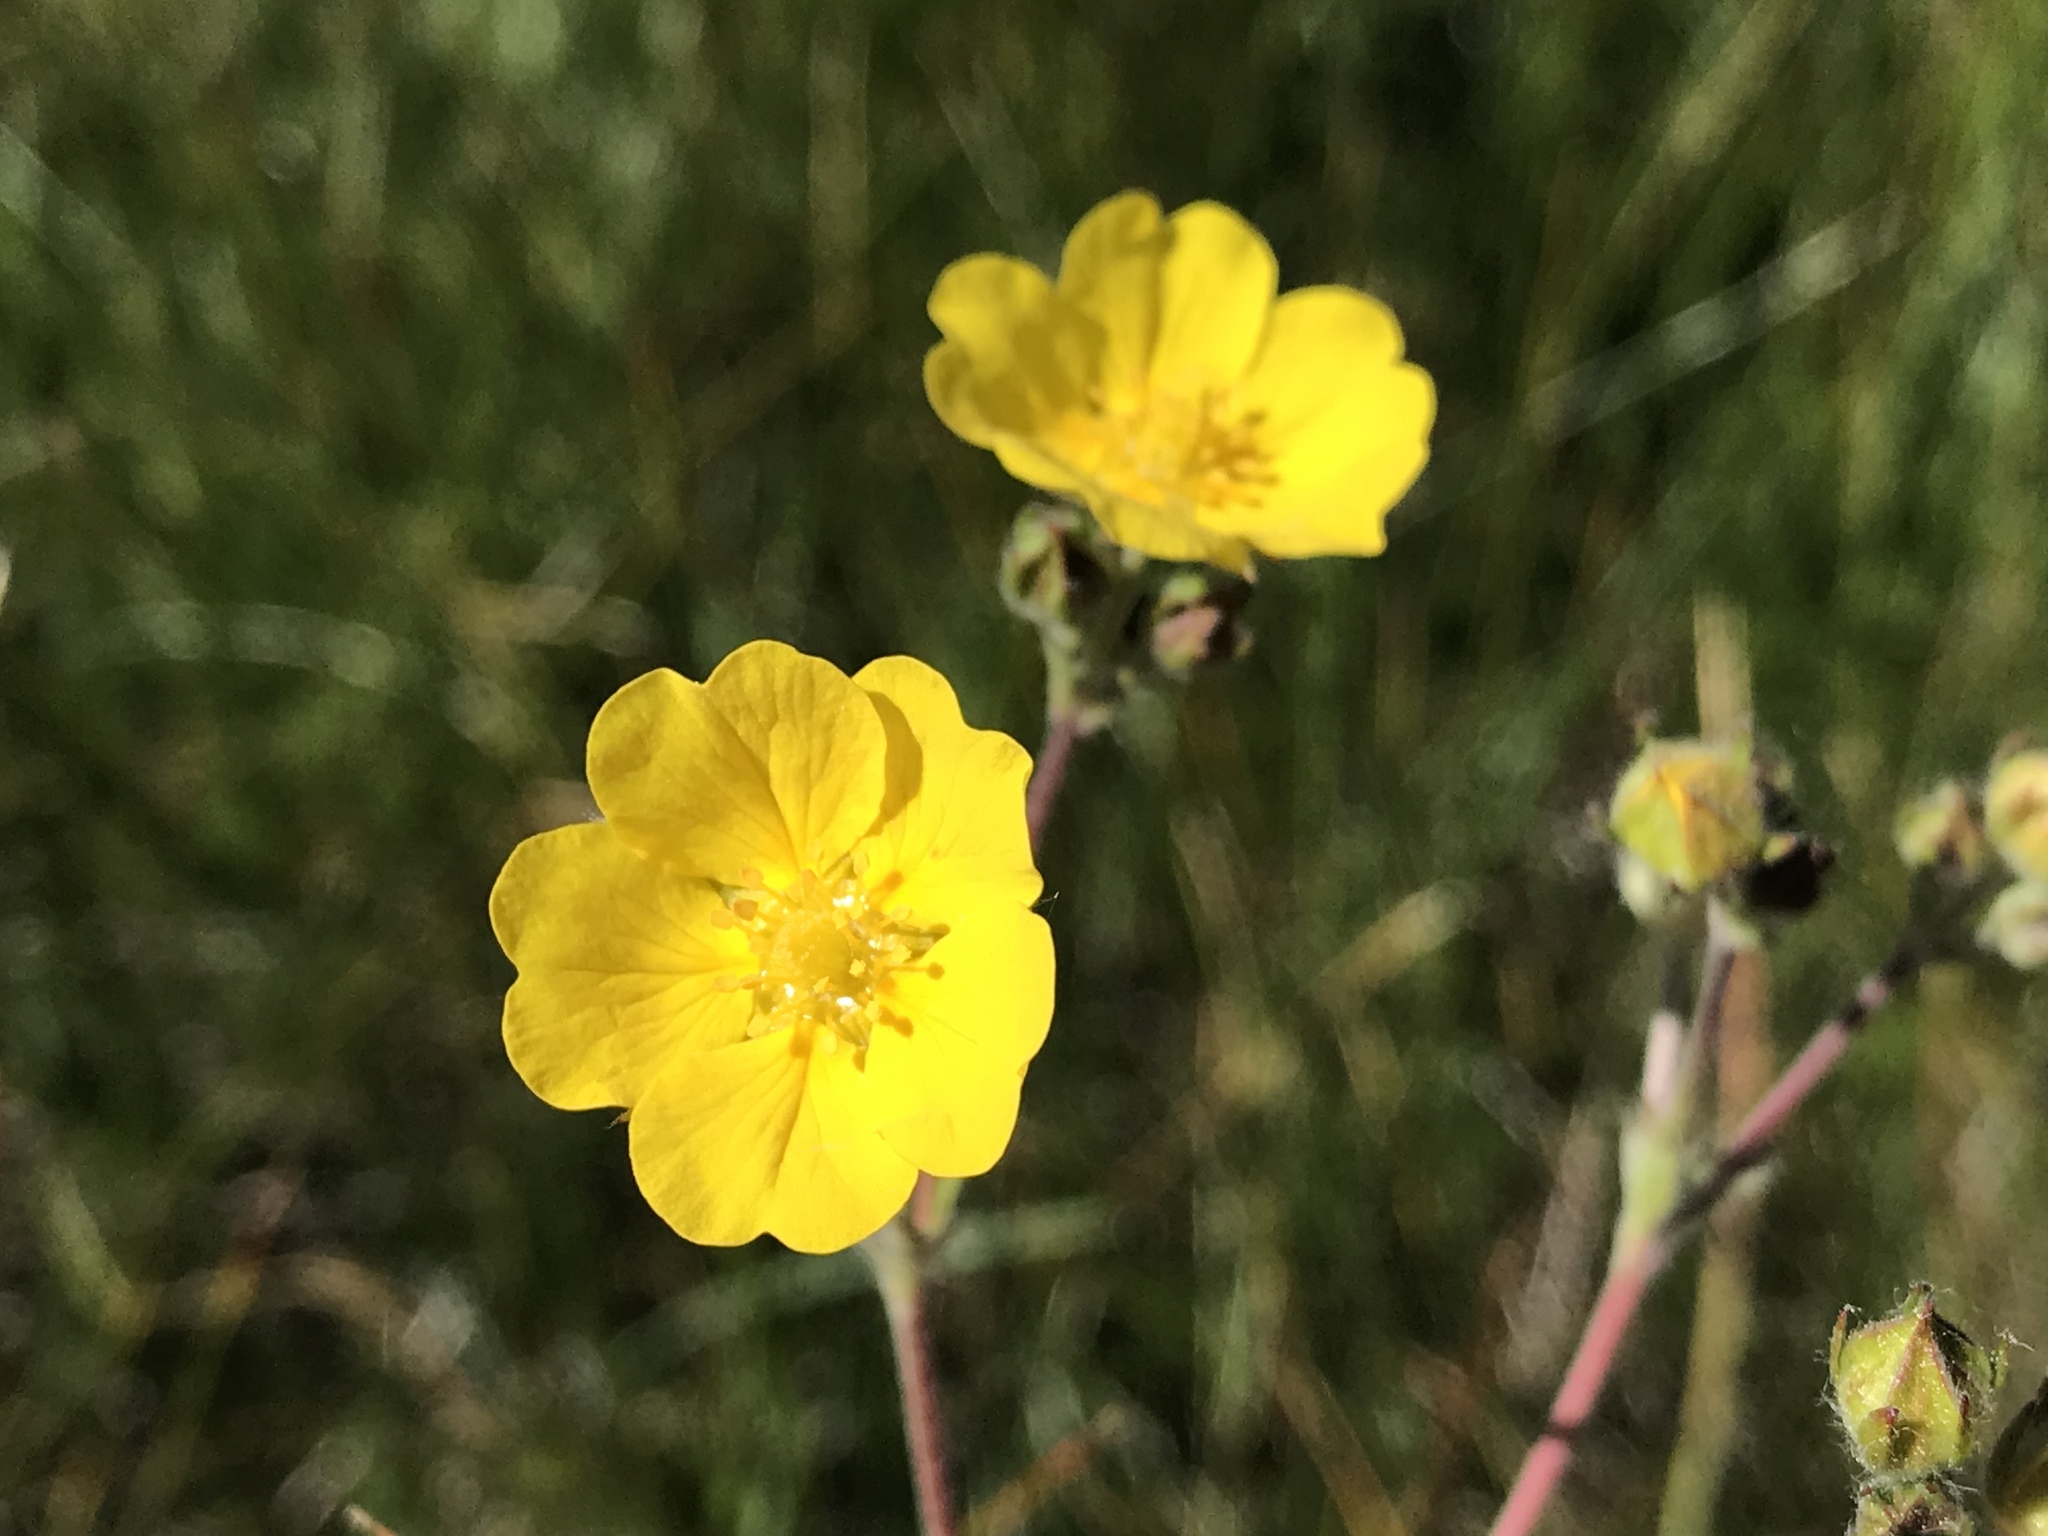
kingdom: Plantae
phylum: Tracheophyta
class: Magnoliopsida
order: Rosales
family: Rosaceae
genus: Potentilla
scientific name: Potentilla gracilis
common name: Graceful cinquefoil
